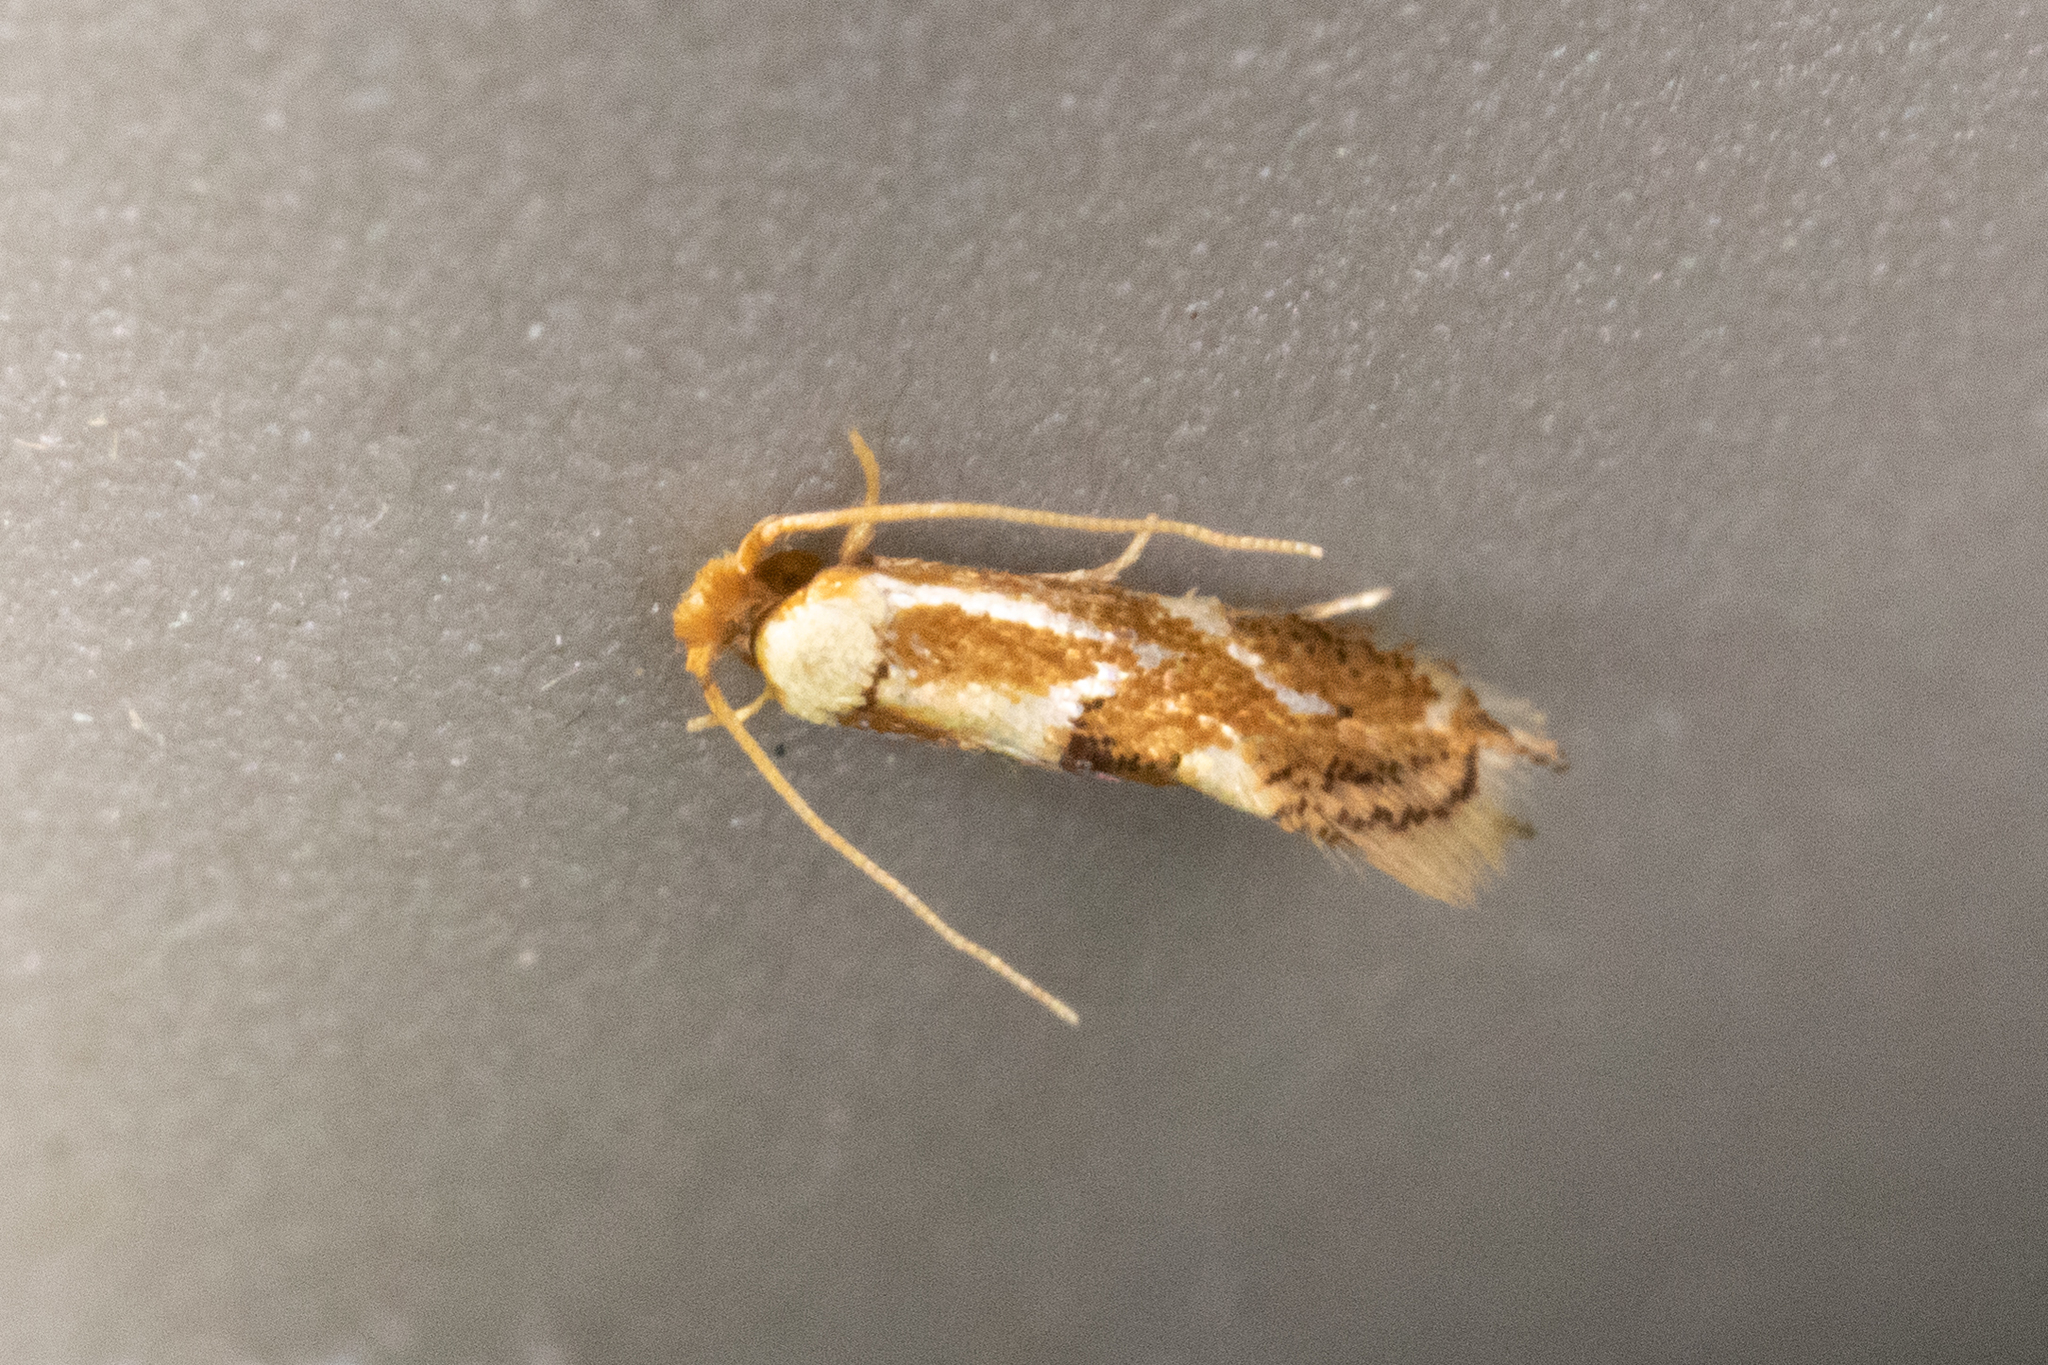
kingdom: Animalia
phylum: Arthropoda
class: Insecta
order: Lepidoptera
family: Lyonetiidae
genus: Philonome
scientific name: Philonome clemensella
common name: Clemen's philonome moth
